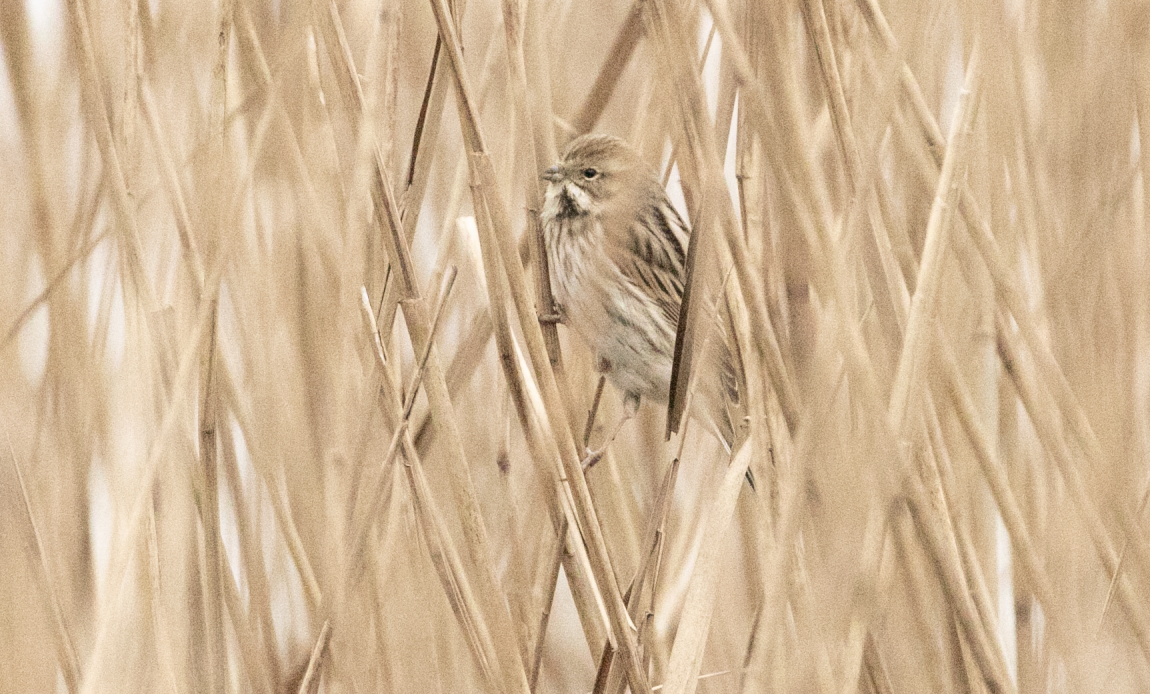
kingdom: Animalia
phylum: Chordata
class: Aves
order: Passeriformes
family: Emberizidae
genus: Emberiza
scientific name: Emberiza schoeniclus
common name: Reed bunting
